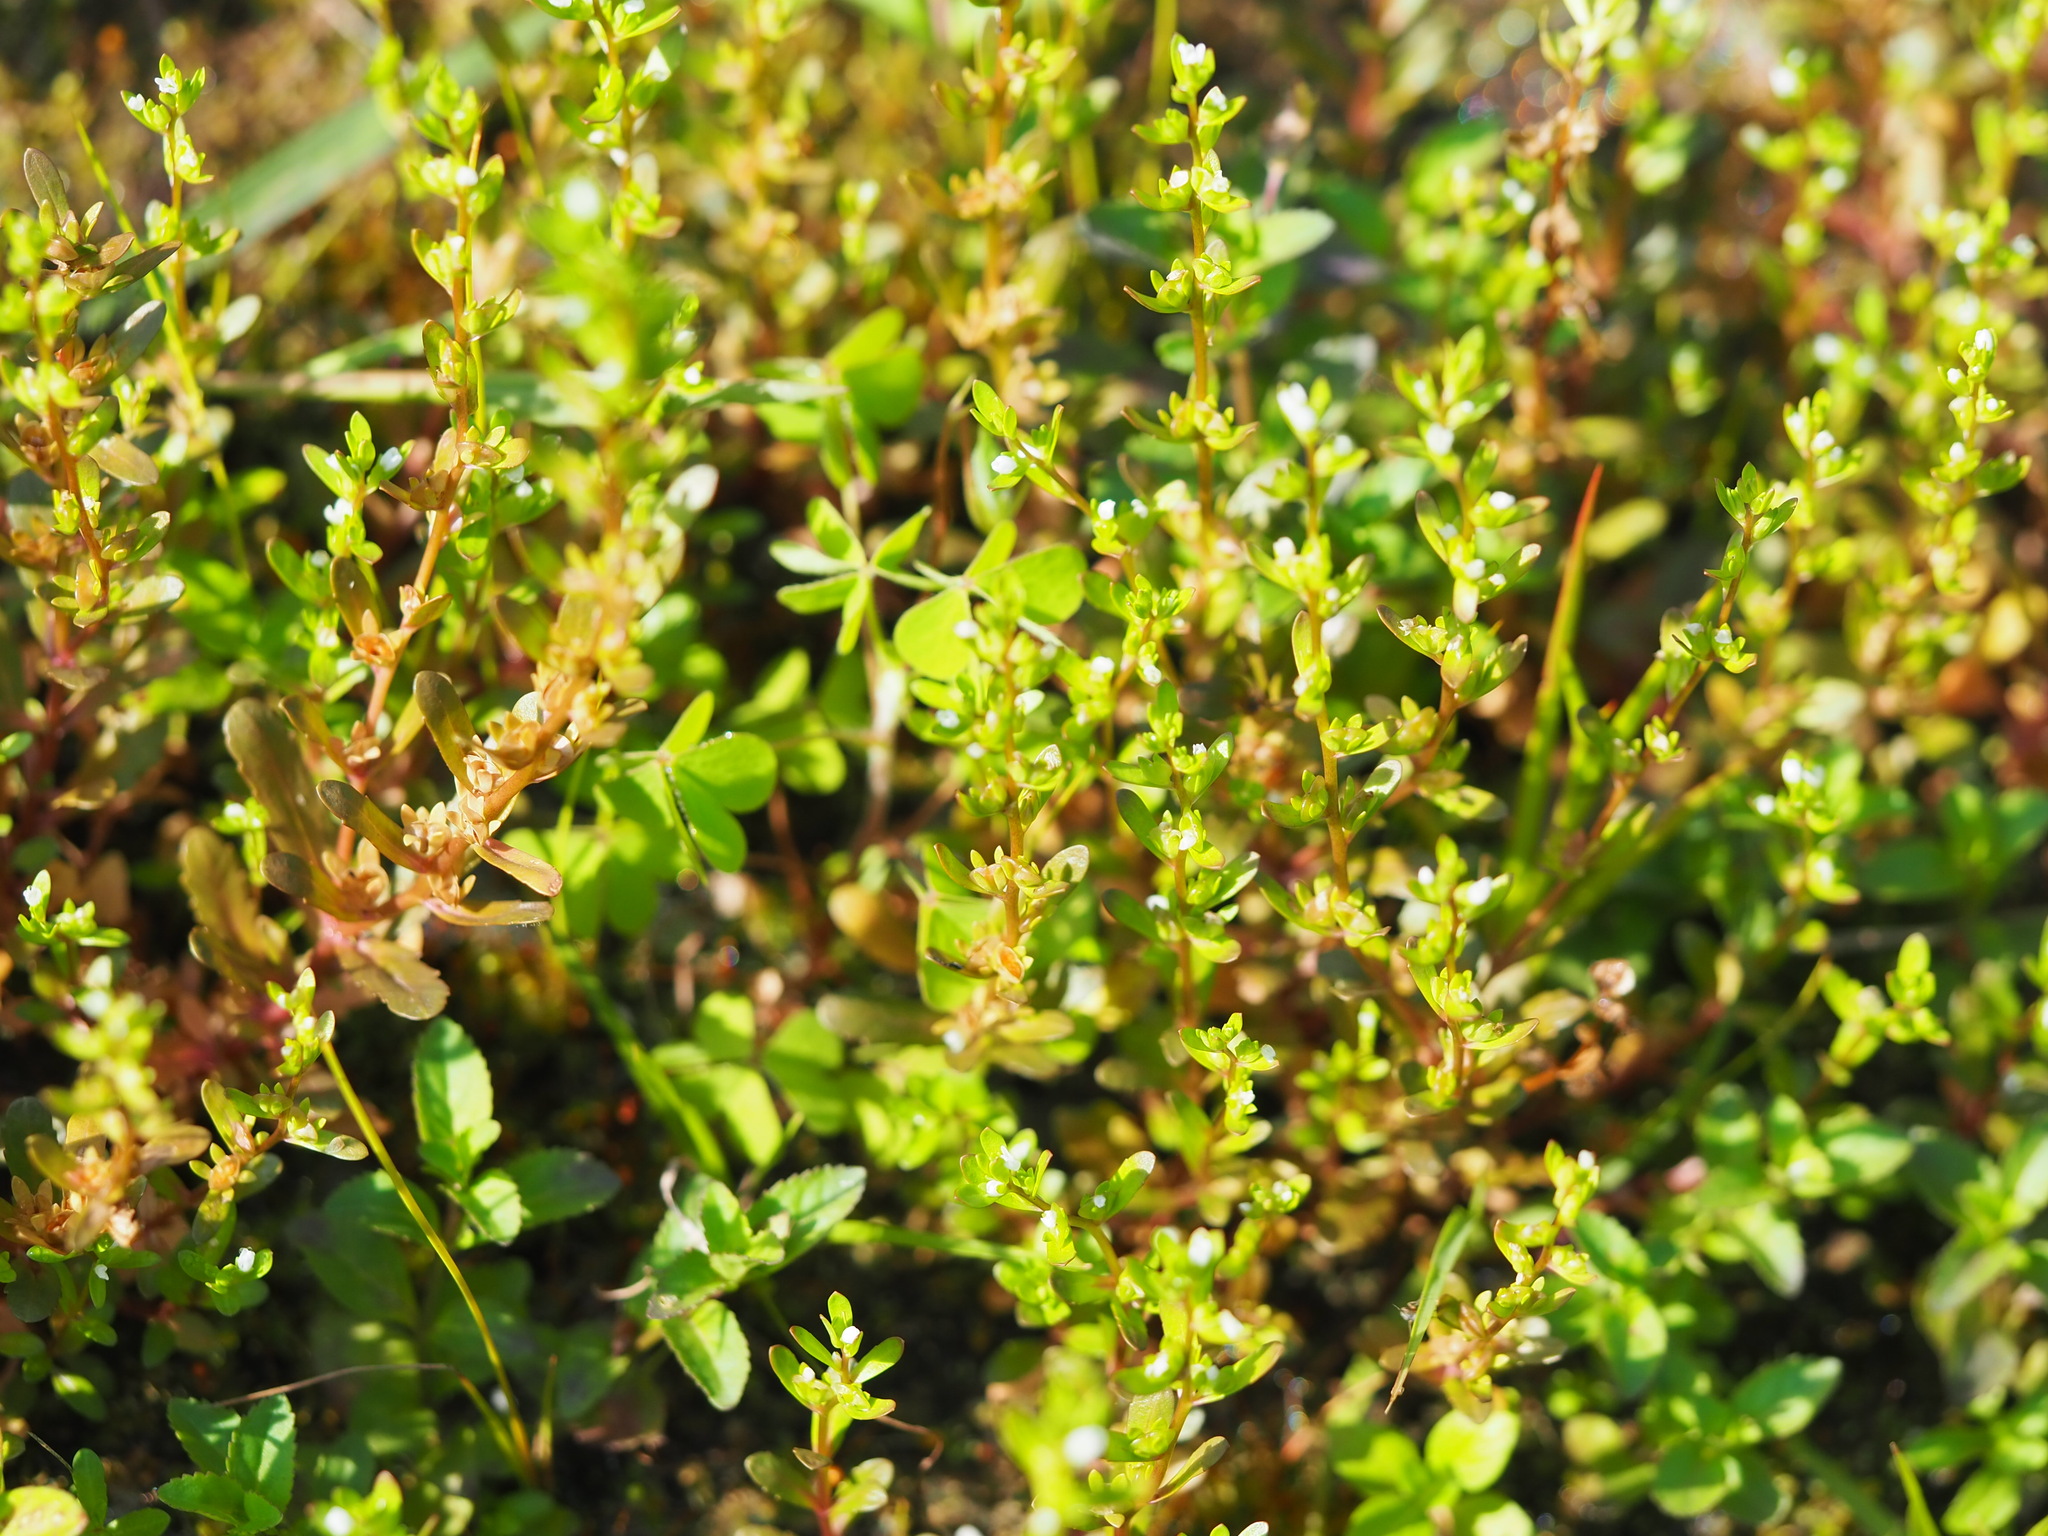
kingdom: Plantae
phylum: Tracheophyta
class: Magnoliopsida
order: Lamiales
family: Plantaginaceae
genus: Veronica
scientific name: Veronica peregrina
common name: Neckweed
